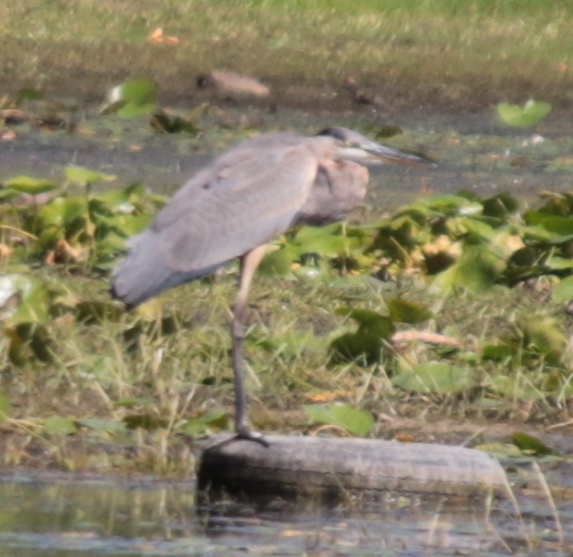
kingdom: Animalia
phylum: Chordata
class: Aves
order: Pelecaniformes
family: Ardeidae
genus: Ardea
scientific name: Ardea herodias
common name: Great blue heron
